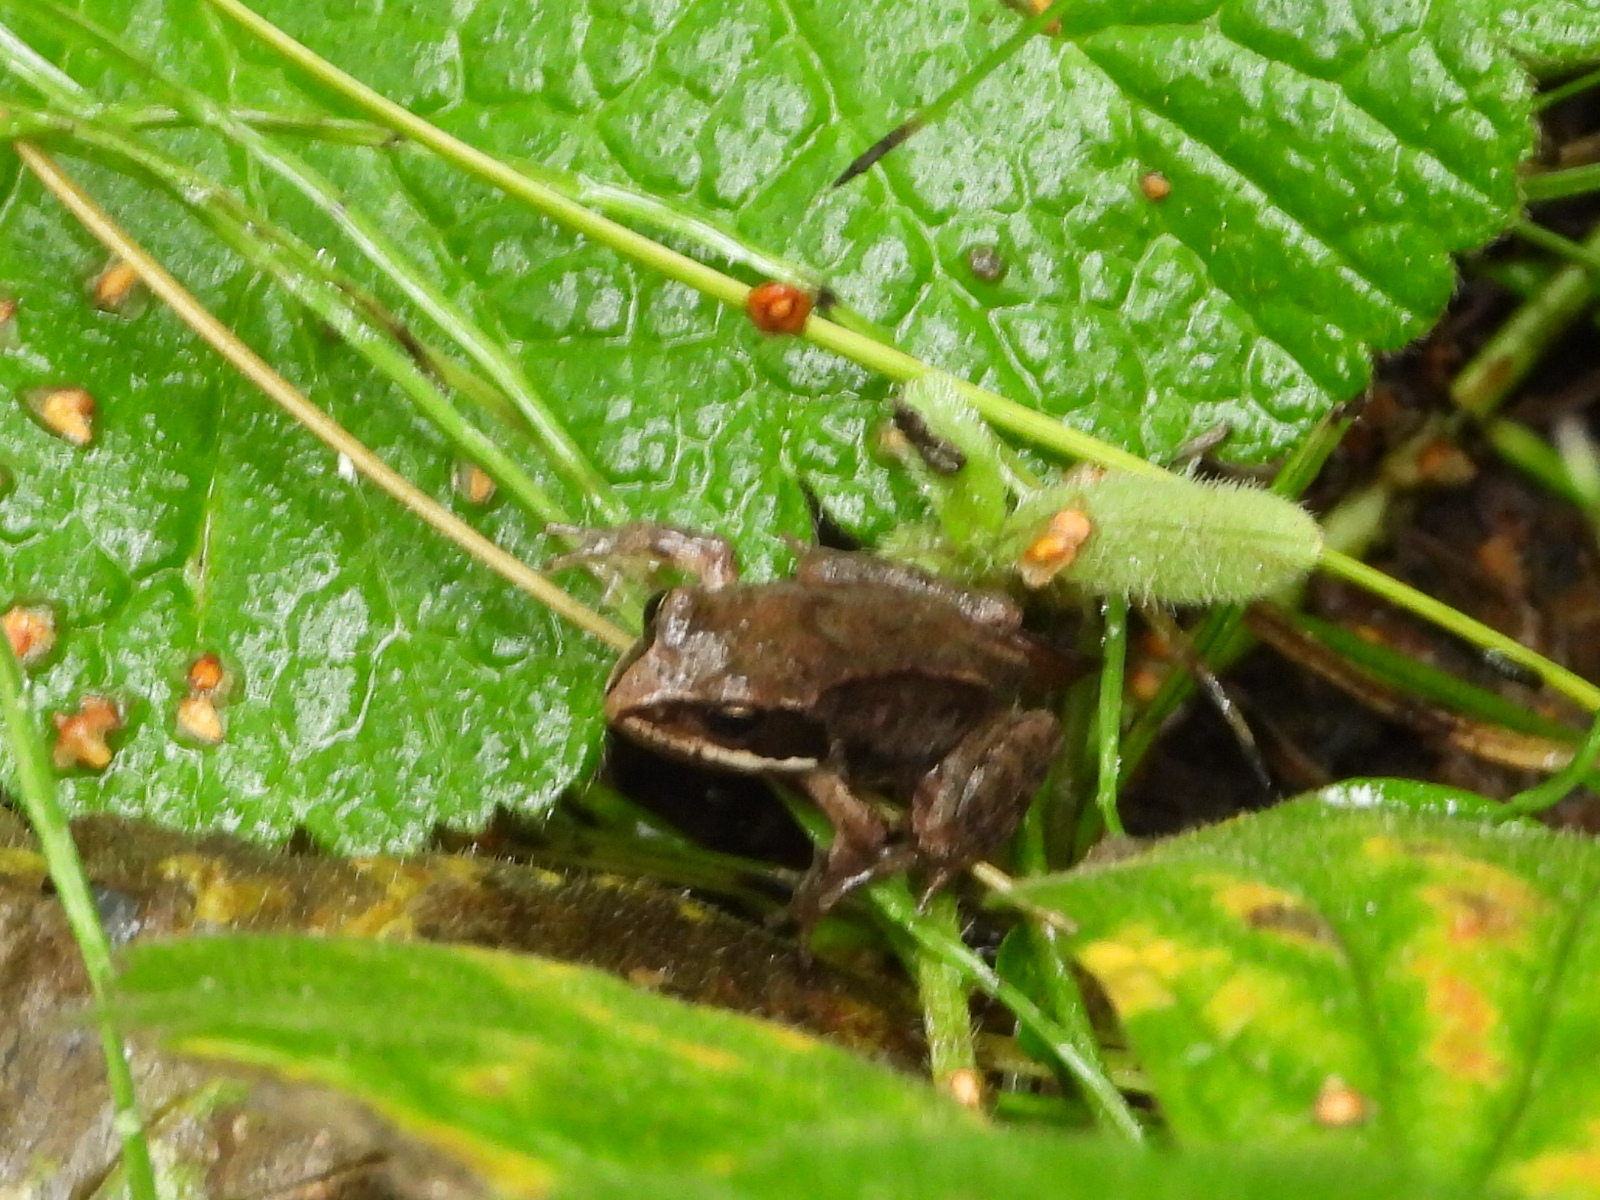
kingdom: Animalia
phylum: Chordata
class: Amphibia
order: Anura
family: Ranidae
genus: Rana
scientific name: Rana arvalis
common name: Moor frog
